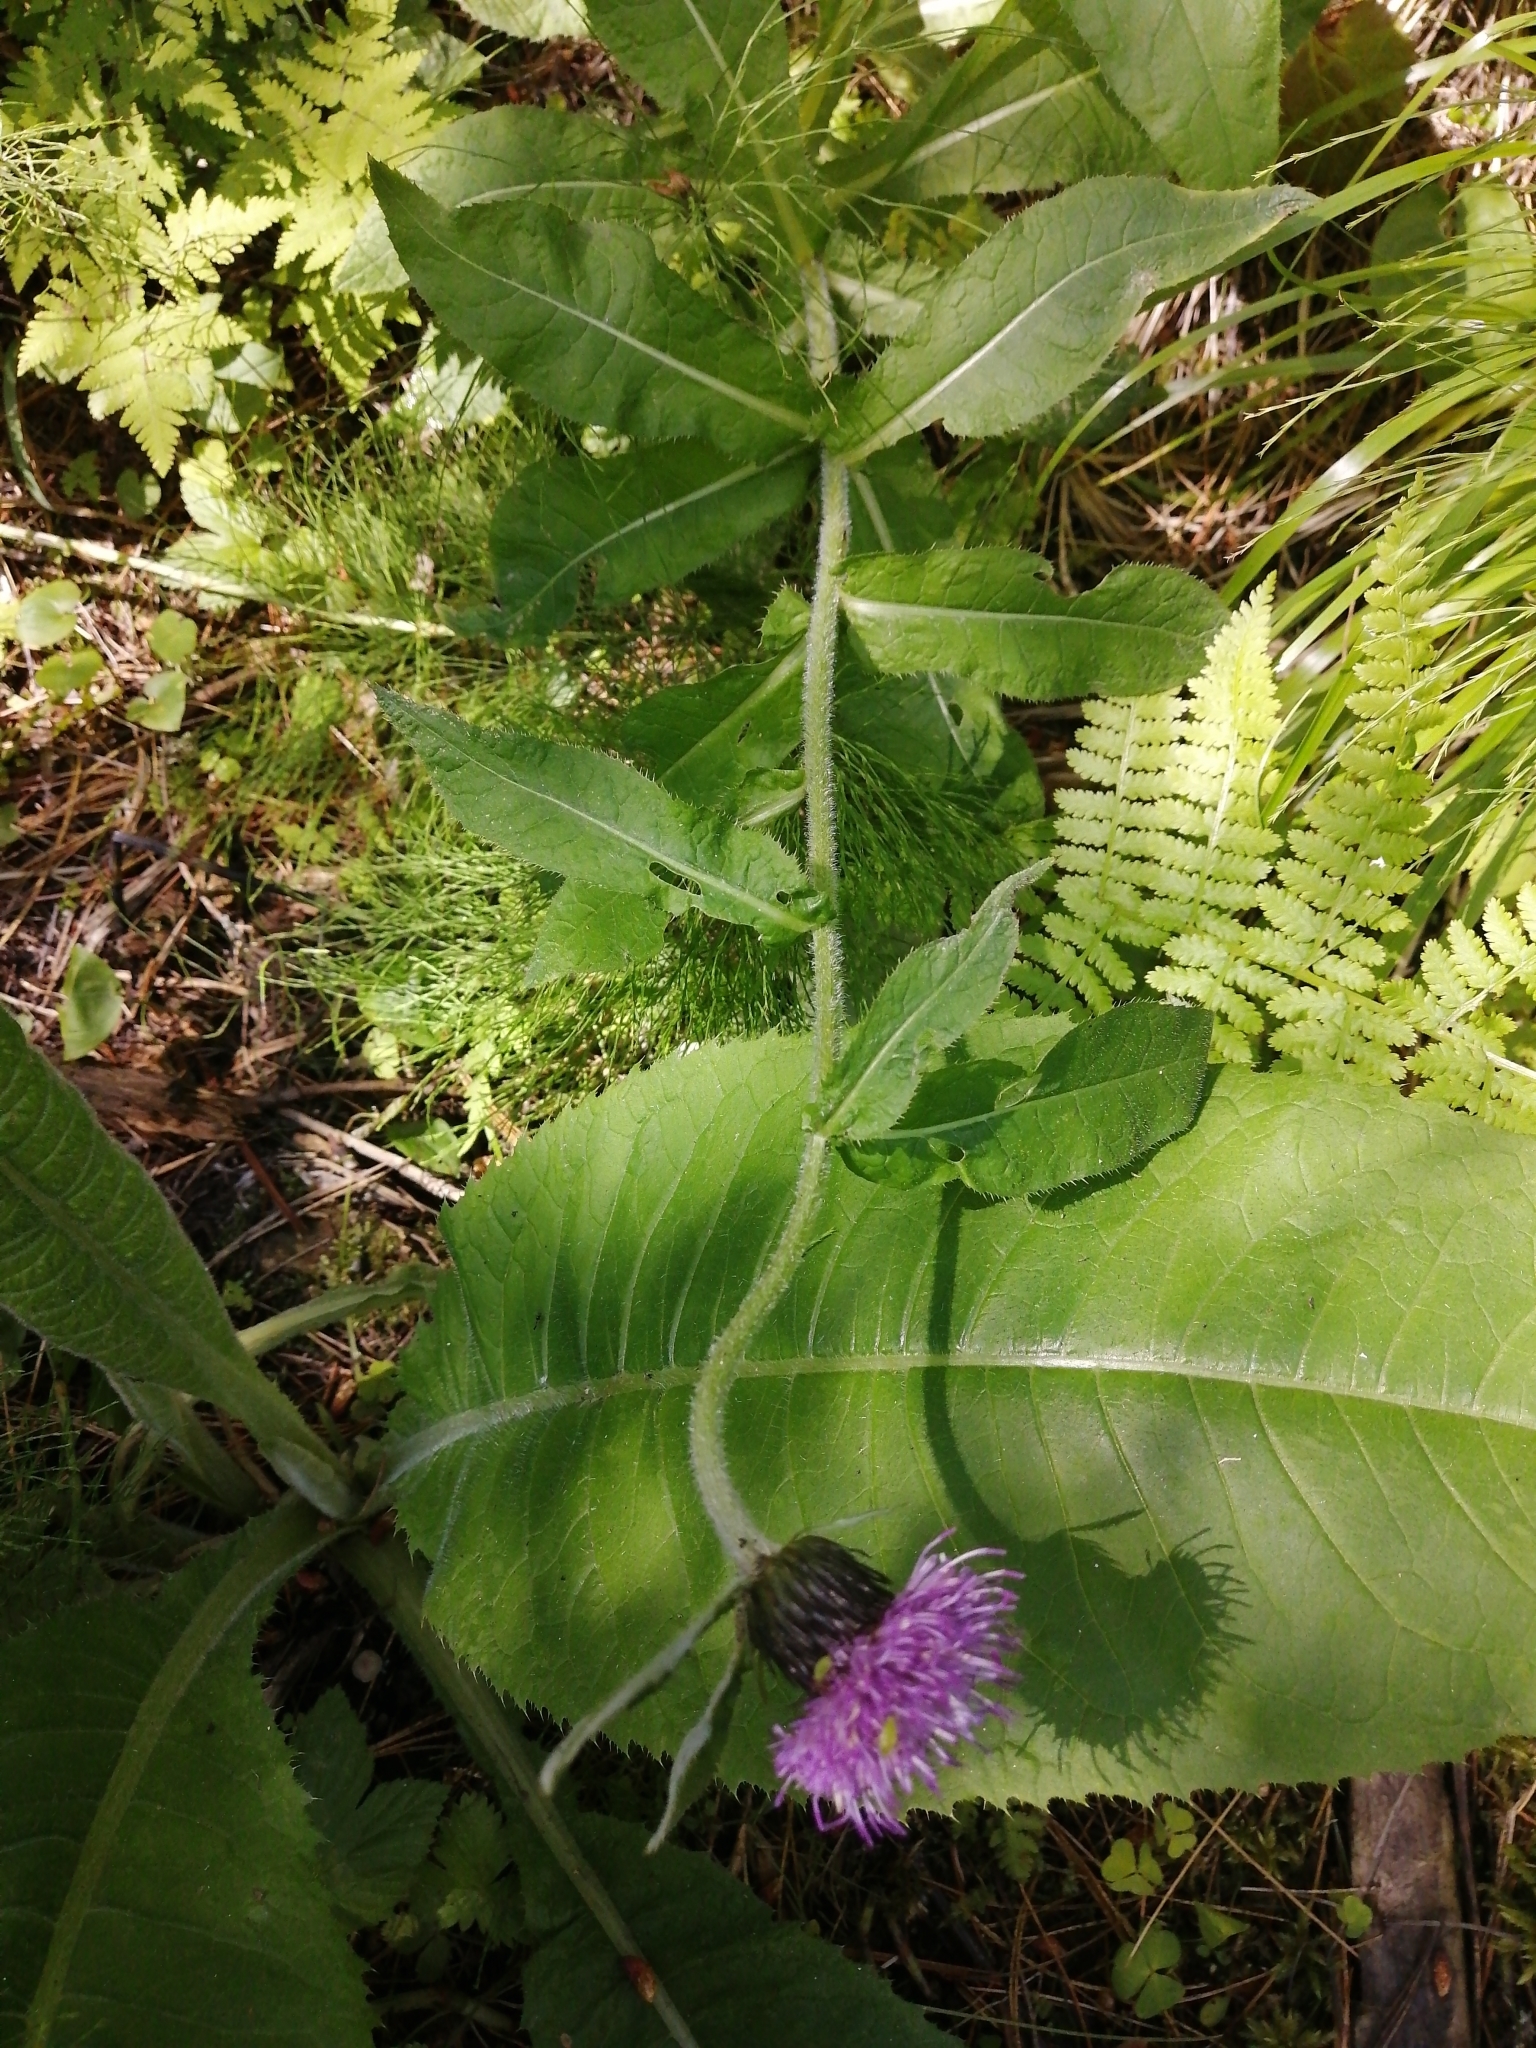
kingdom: Plantae
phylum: Tracheophyta
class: Magnoliopsida
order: Asterales
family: Asteraceae
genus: Cirsium
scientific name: Cirsium heterophyllum
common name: Melancholy thistle
